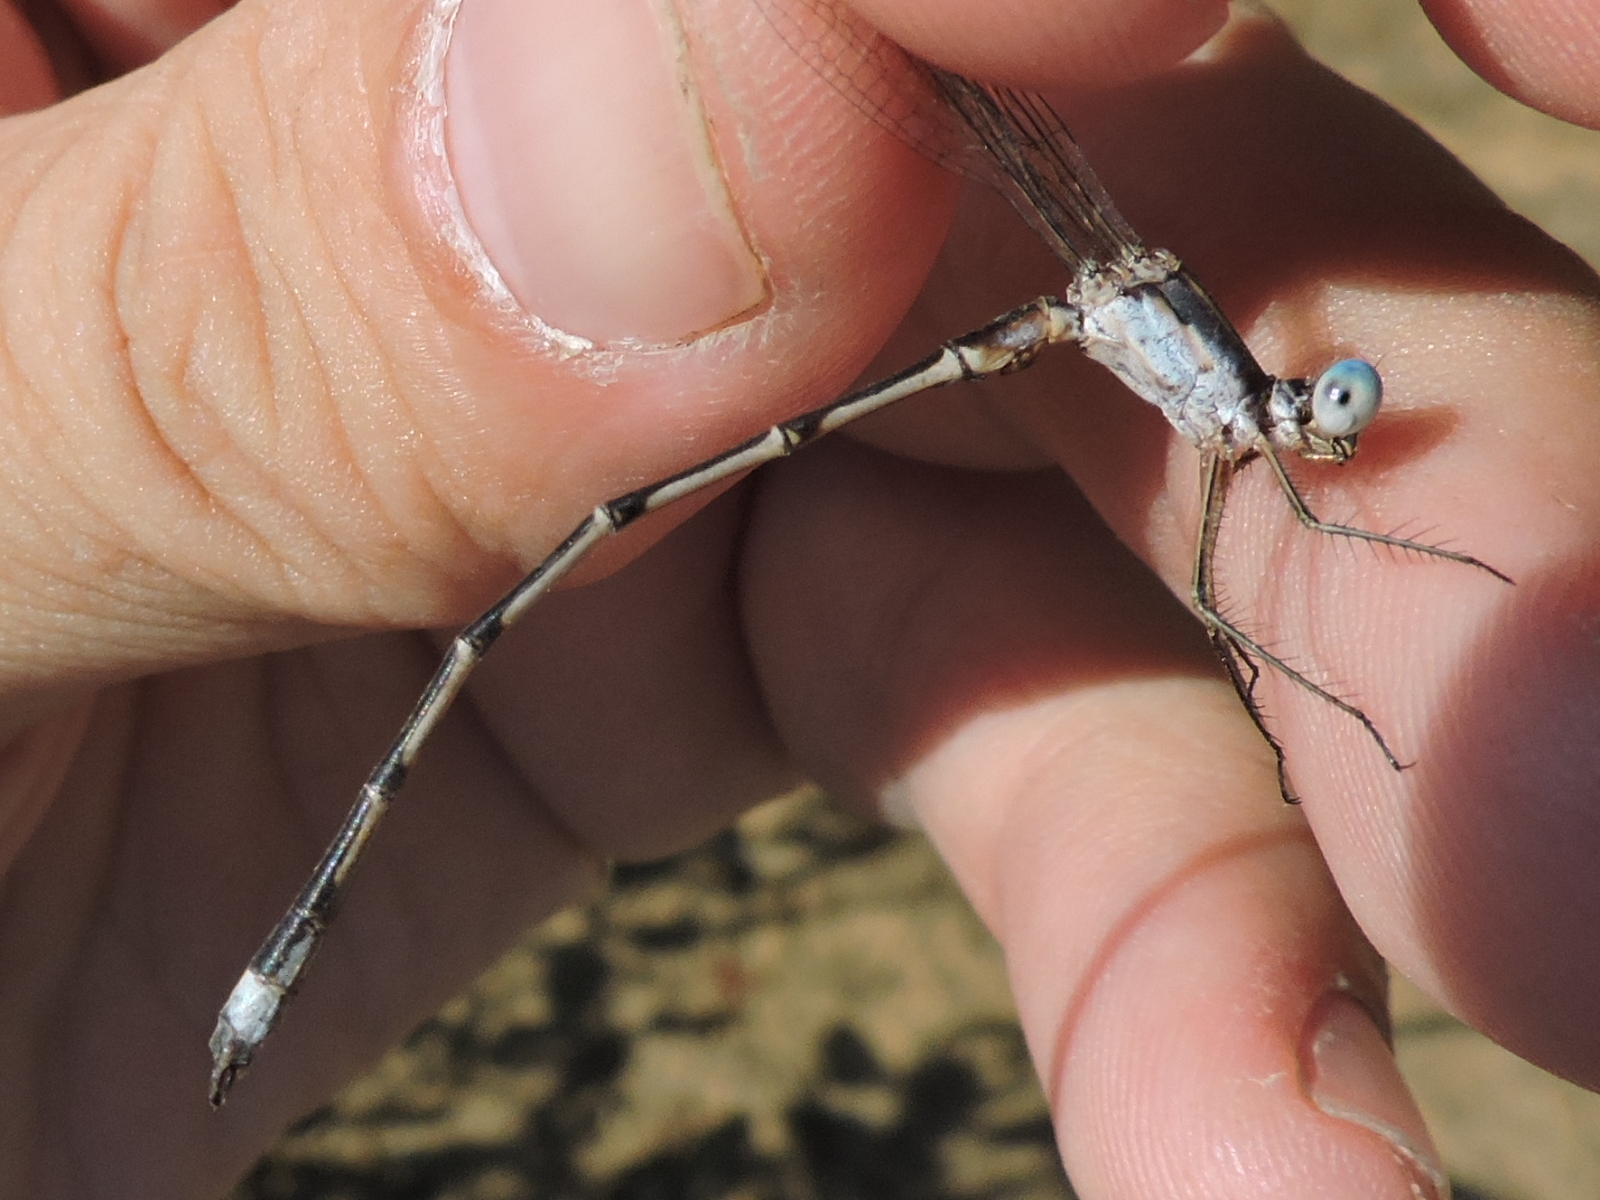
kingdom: Animalia
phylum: Arthropoda
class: Insecta
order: Odonata
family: Lestidae
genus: Lestes
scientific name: Lestes australis
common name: Southern spreadwing
